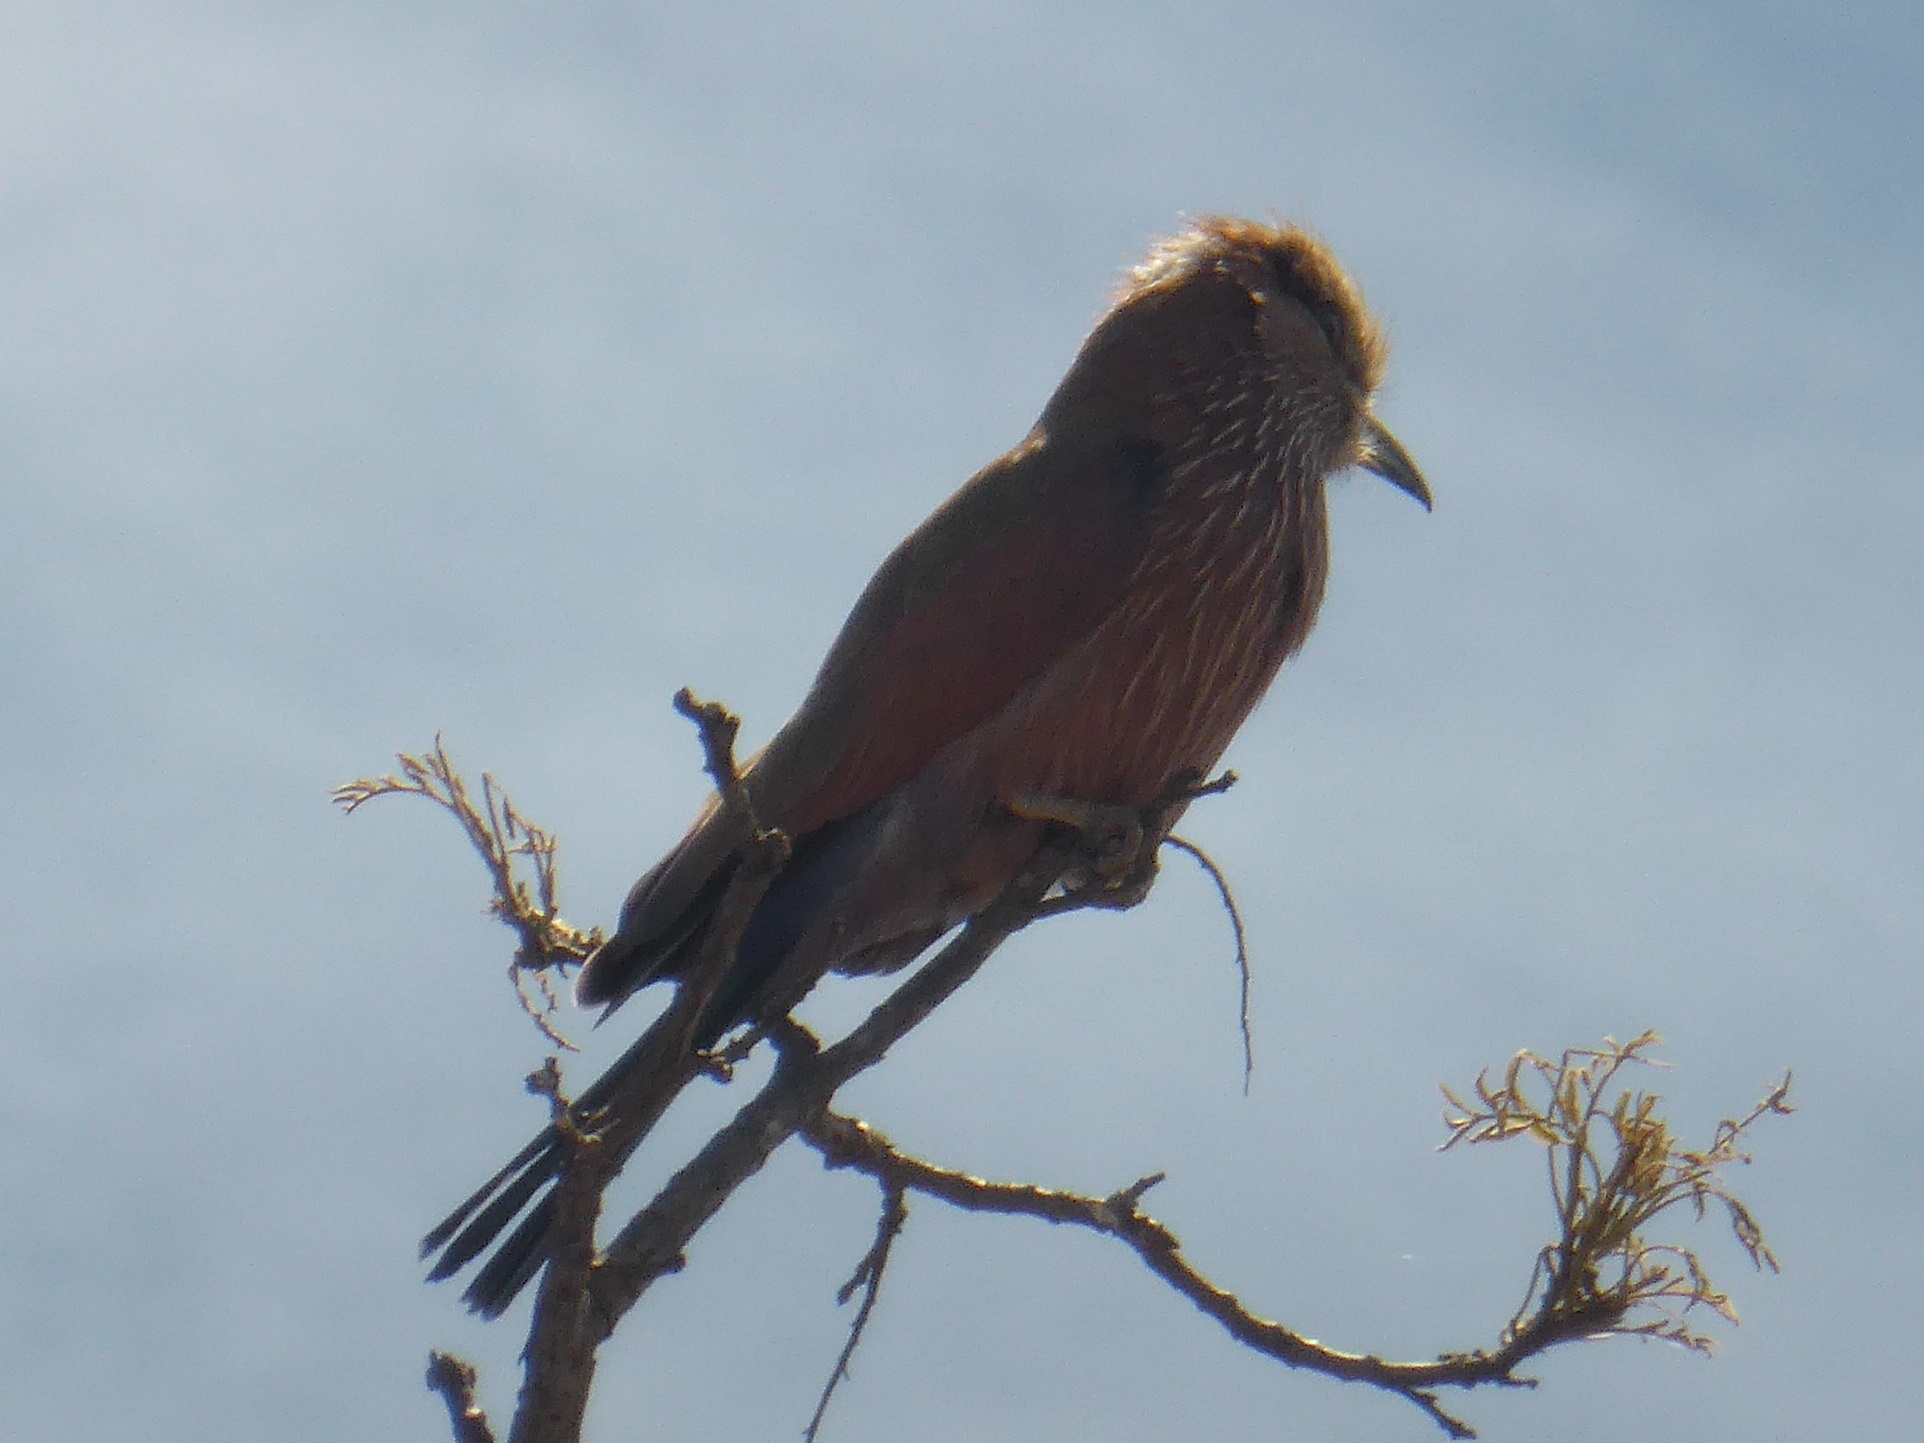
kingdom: Animalia
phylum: Chordata
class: Aves
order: Coraciiformes
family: Coraciidae
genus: Coracias
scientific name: Coracias naevius
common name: Purple roller
